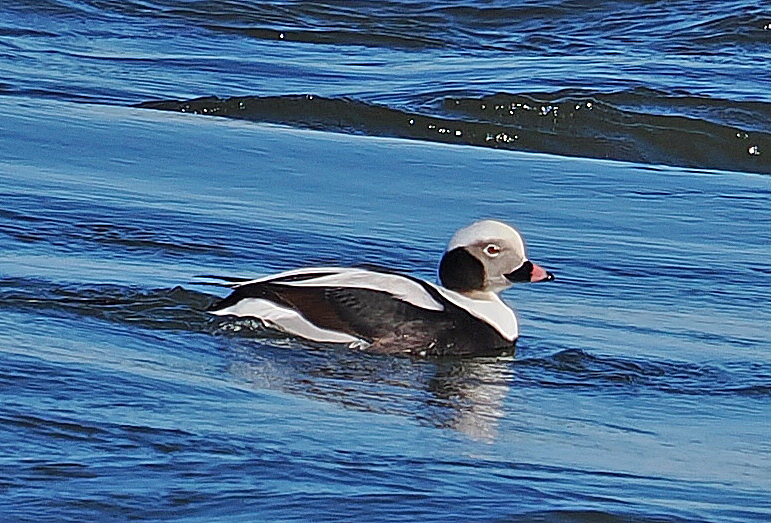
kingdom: Animalia
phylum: Chordata
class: Aves
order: Anseriformes
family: Anatidae
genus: Clangula
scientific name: Clangula hyemalis
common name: Long-tailed duck
